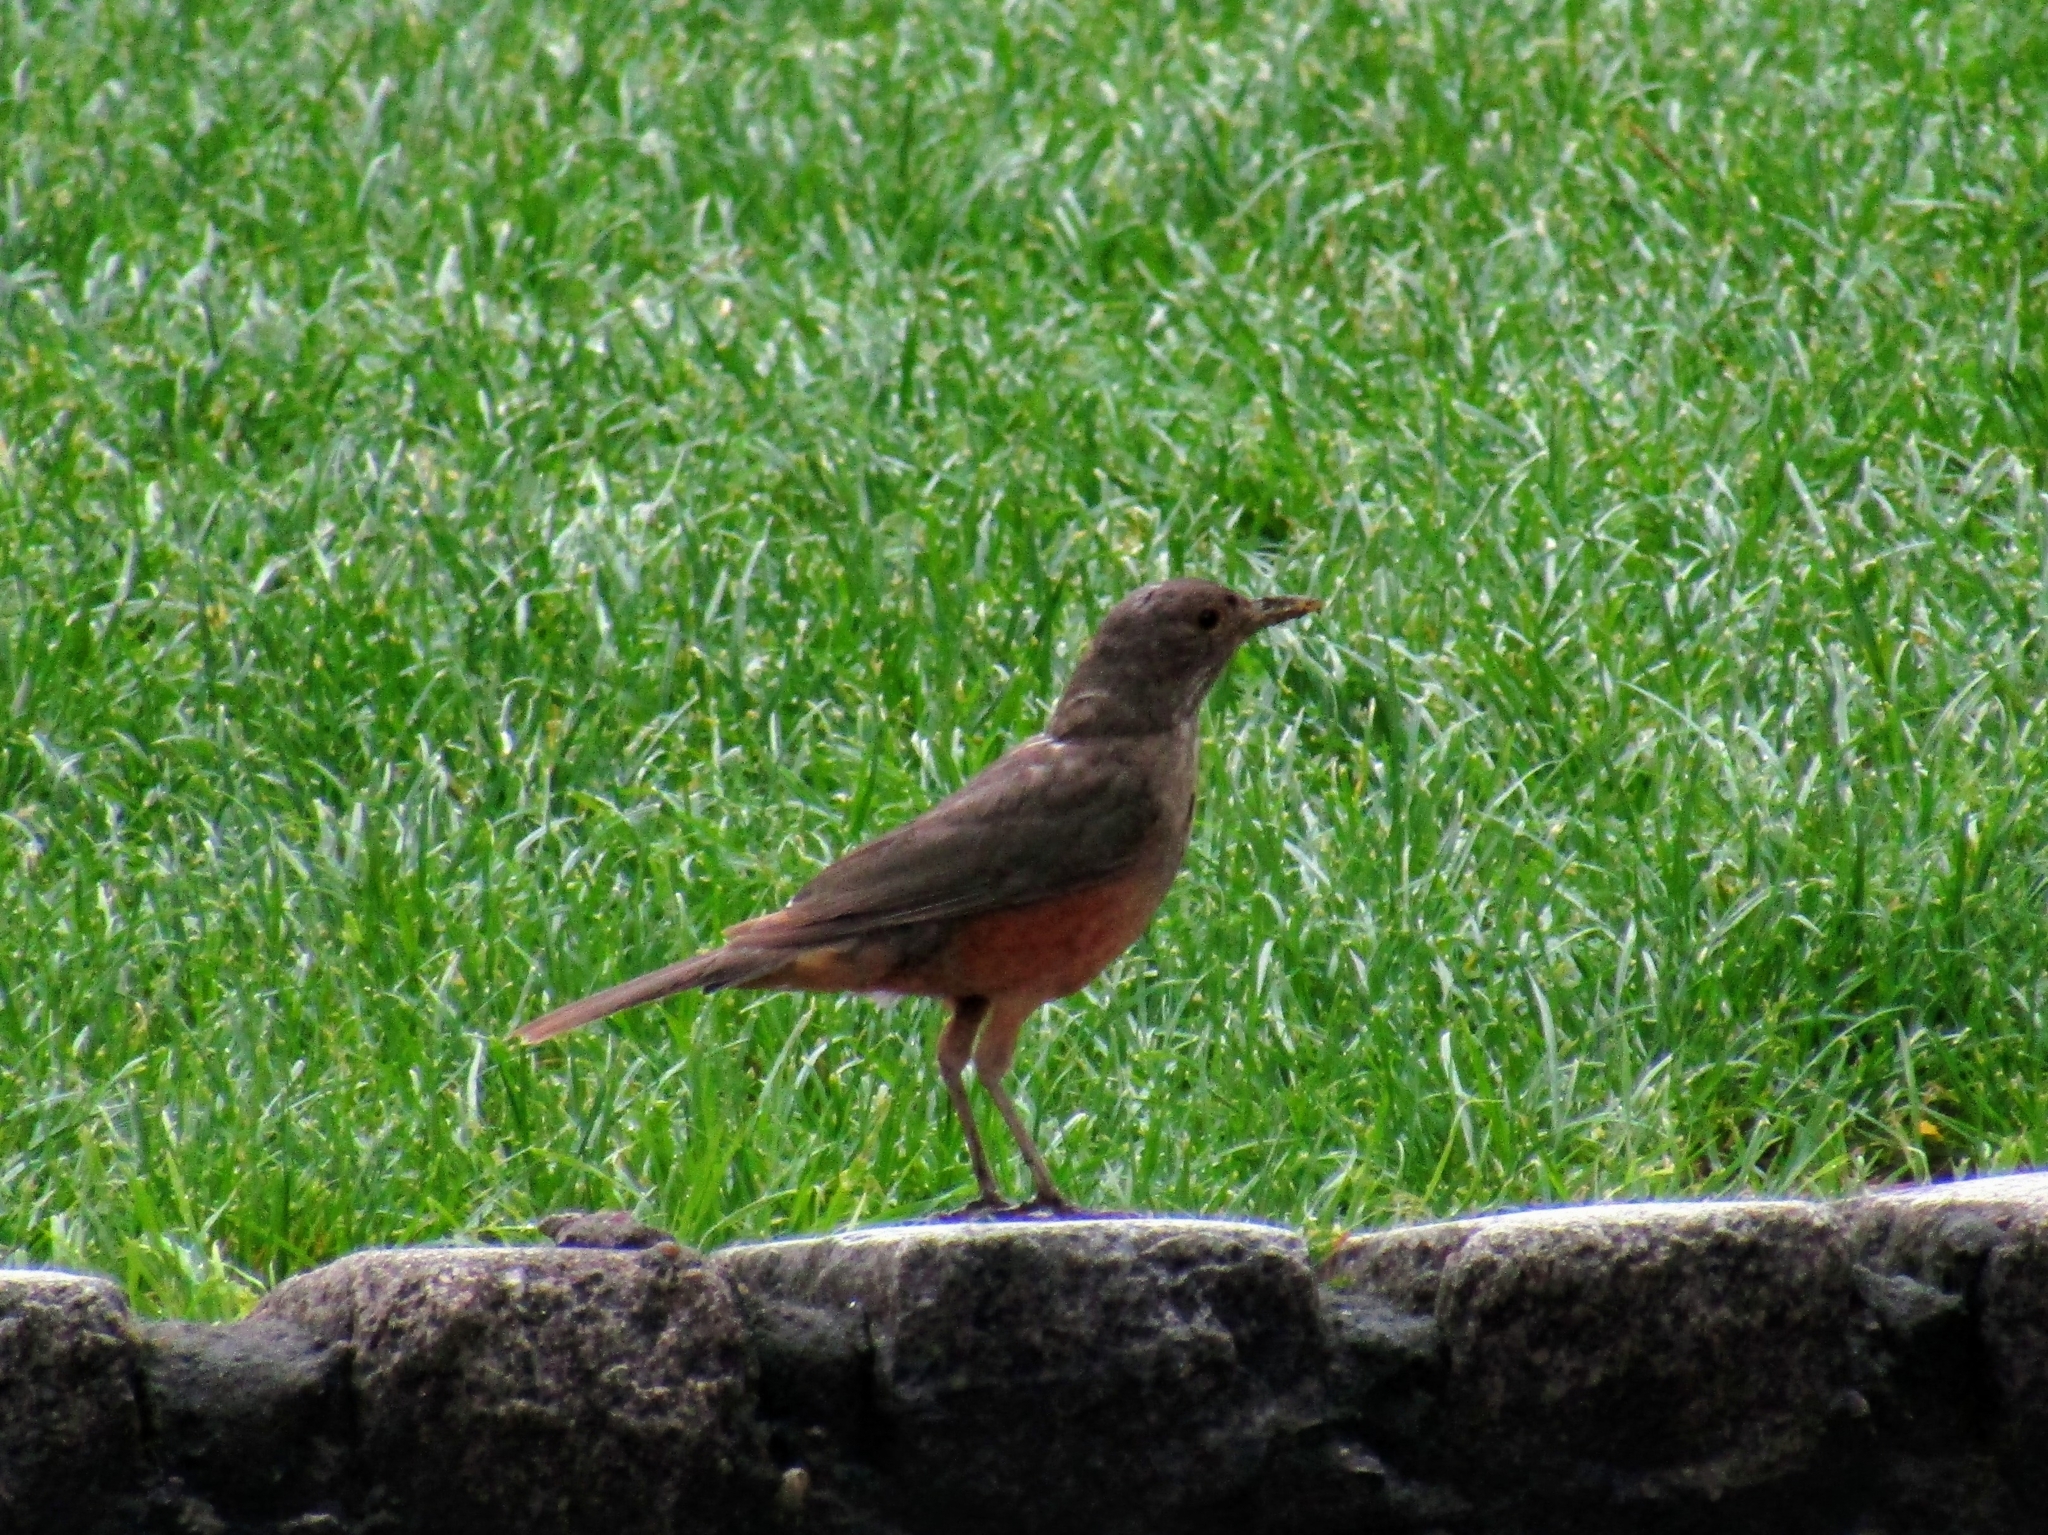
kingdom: Animalia
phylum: Chordata
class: Aves
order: Passeriformes
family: Turdidae
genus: Turdus
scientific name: Turdus rufiventris
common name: Rufous-bellied thrush
